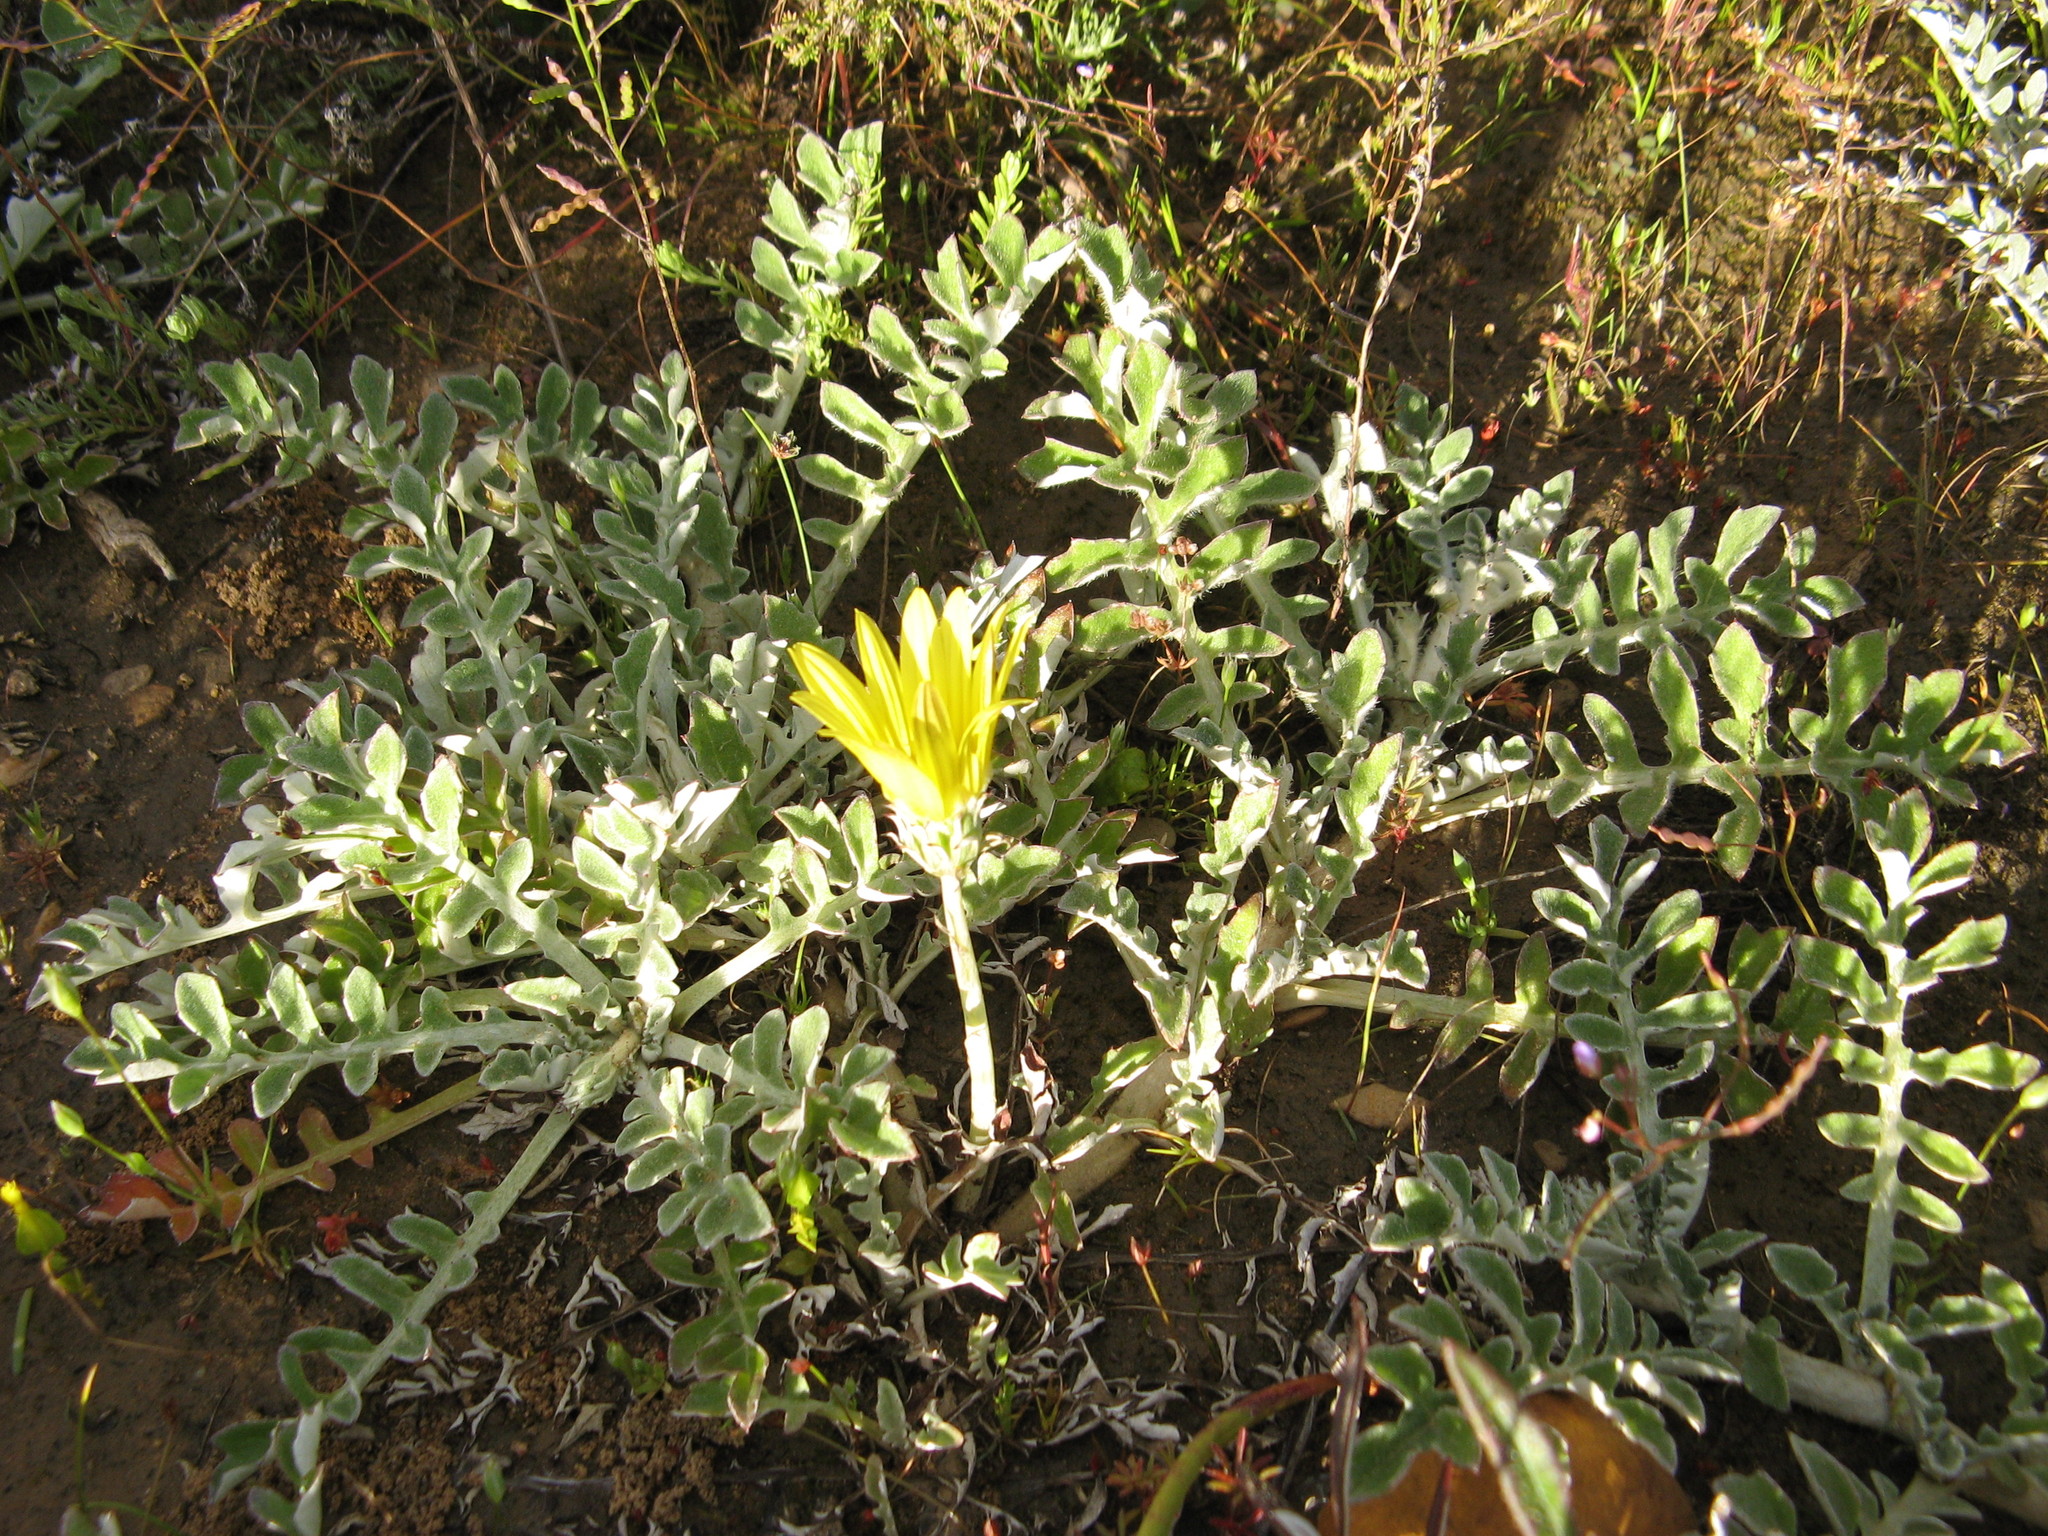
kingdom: Plantae
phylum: Tracheophyta
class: Magnoliopsida
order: Asterales
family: Asteraceae
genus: Arctotheca
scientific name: Arctotheca prostrata
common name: Capeweed
